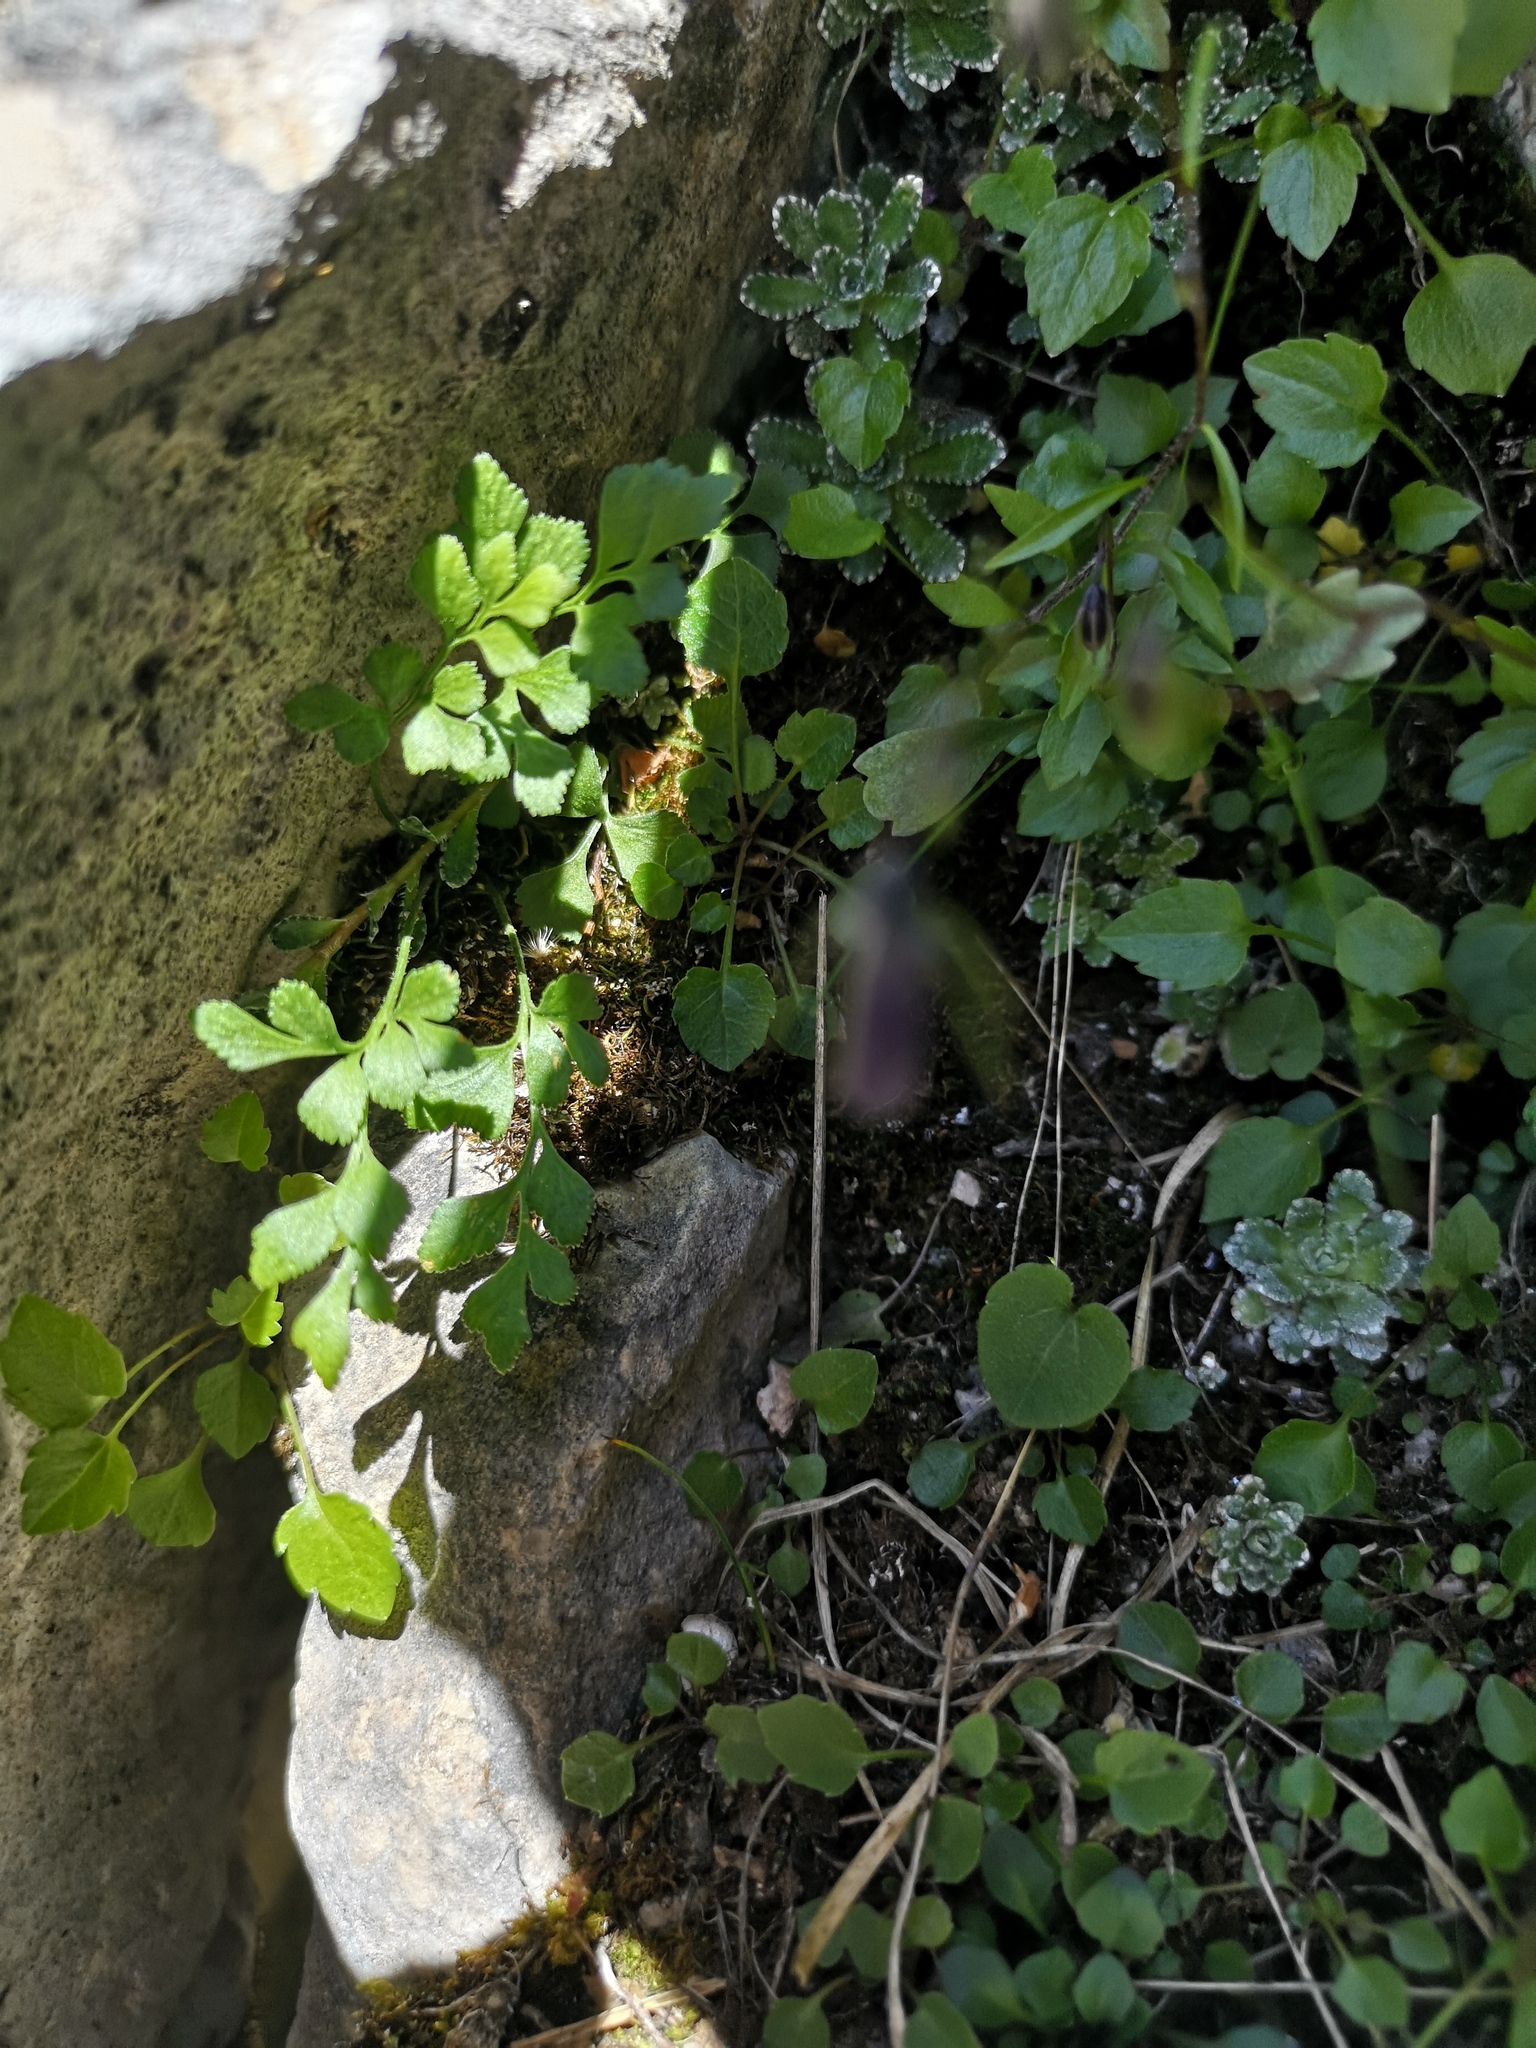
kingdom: Plantae
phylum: Tracheophyta
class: Polypodiopsida
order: Polypodiales
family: Aspleniaceae
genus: Asplenium
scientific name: Asplenium ruta-muraria
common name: Wall-rue
